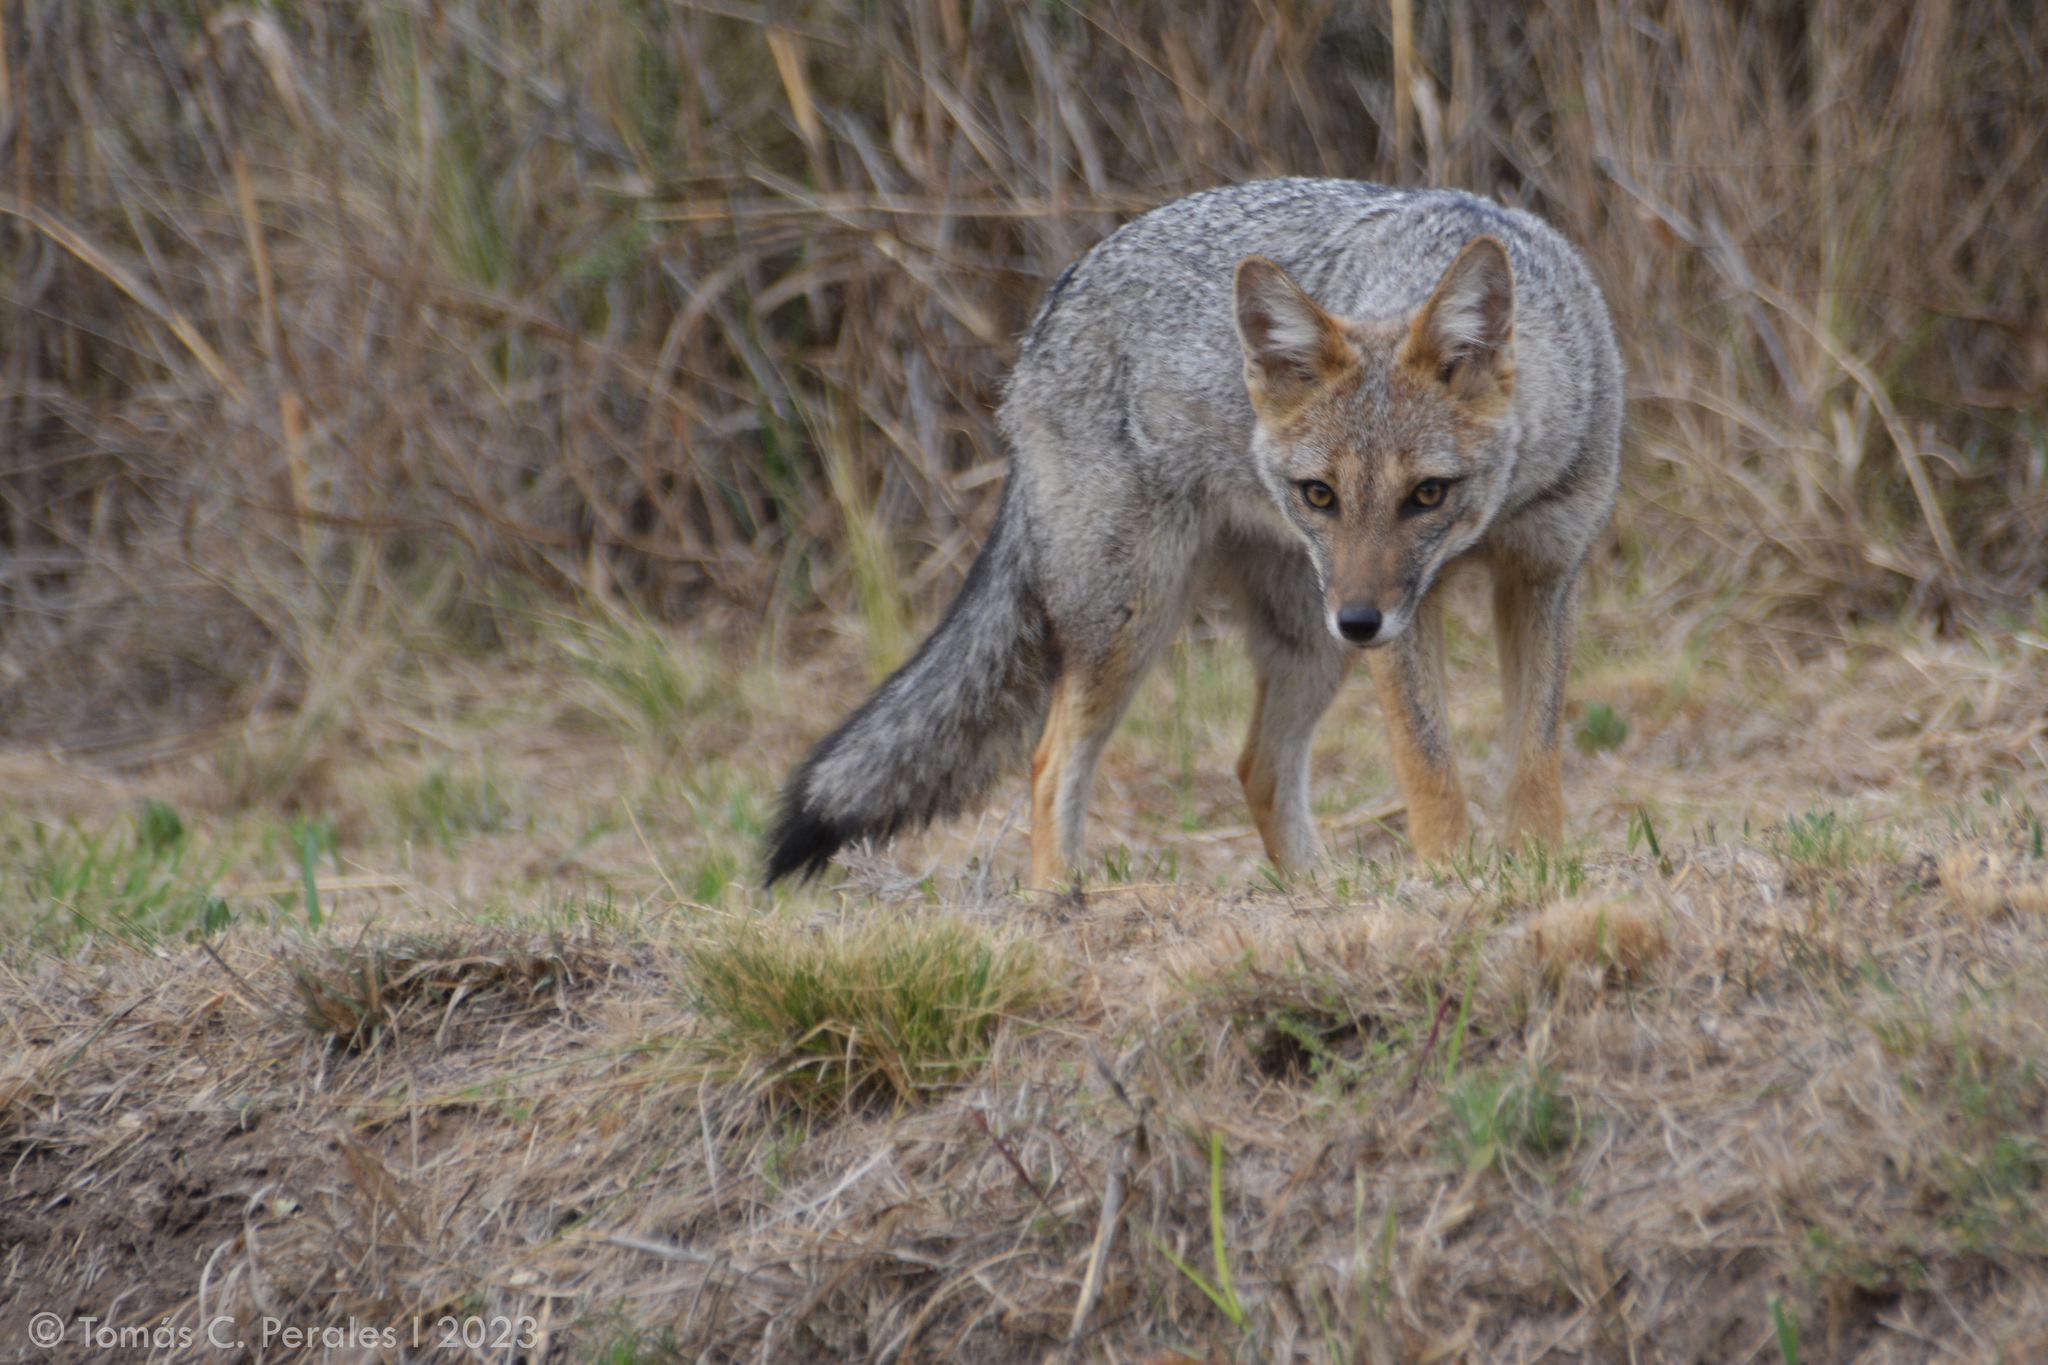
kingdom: Animalia
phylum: Chordata
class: Mammalia
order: Carnivora
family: Canidae
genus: Lycalopex
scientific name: Lycalopex gymnocercus
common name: Pampas fox
